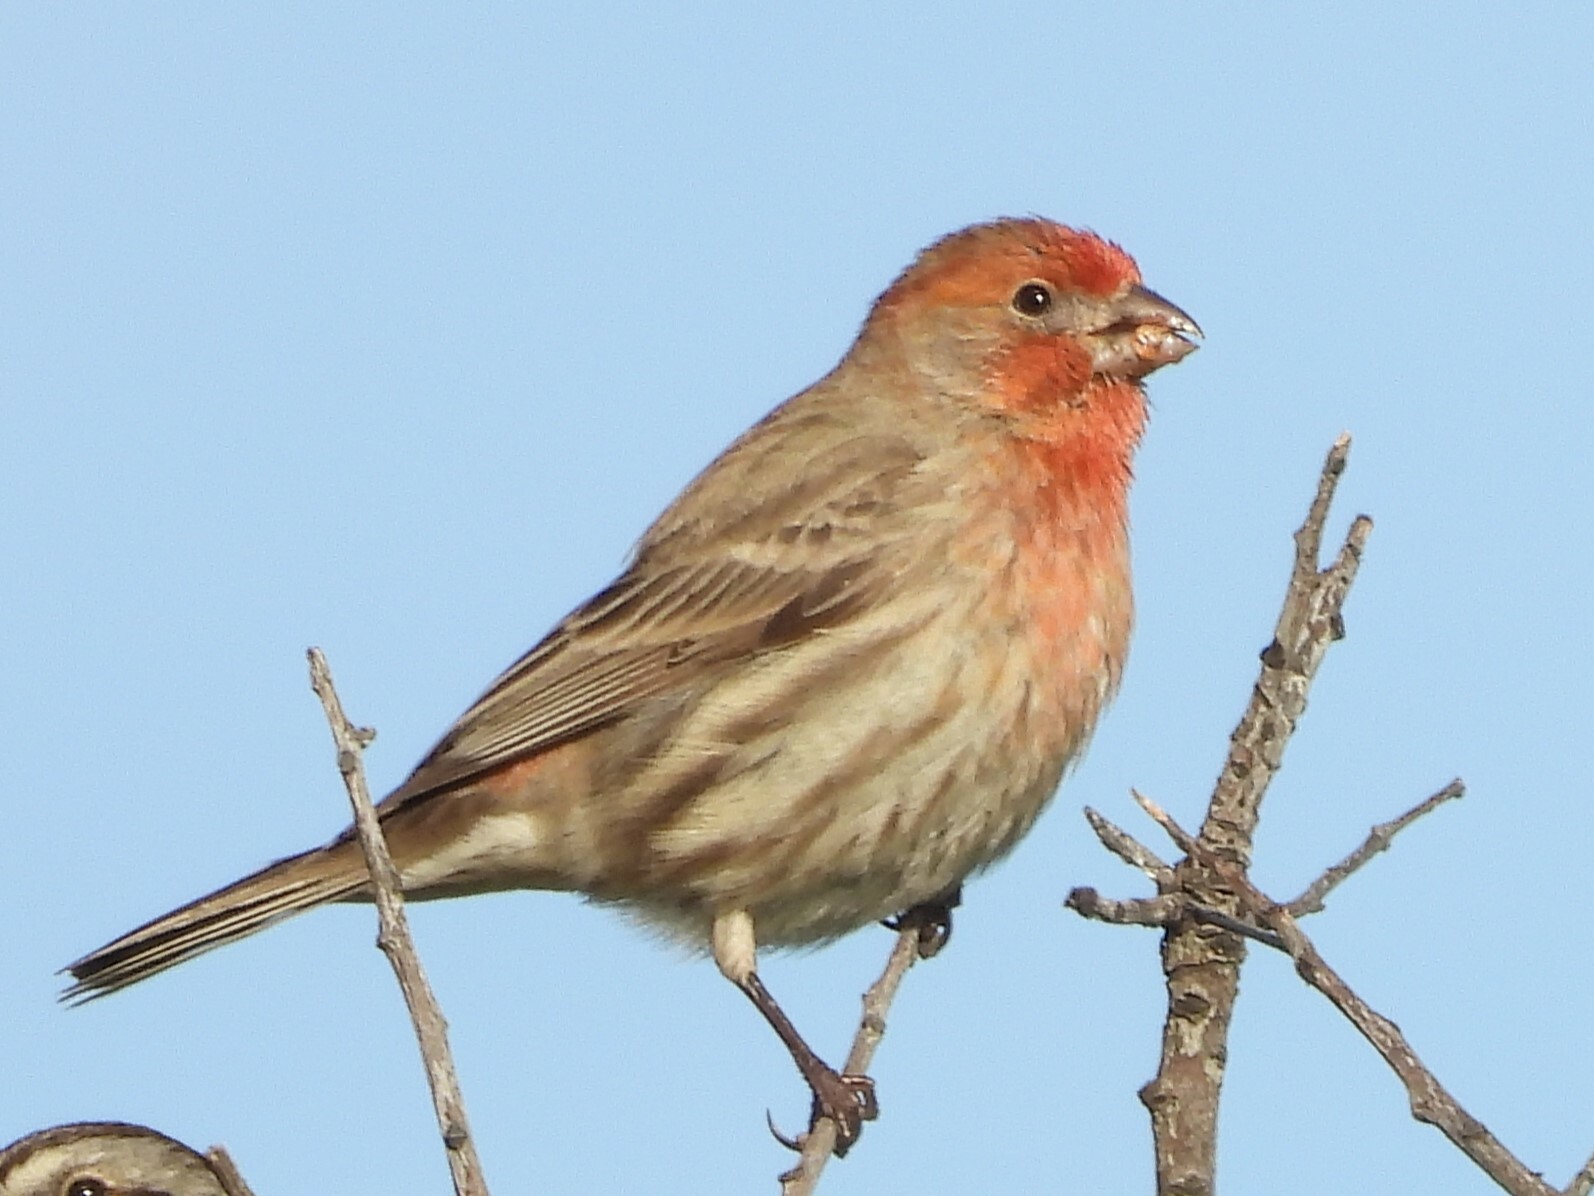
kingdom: Animalia
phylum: Chordata
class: Aves
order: Passeriformes
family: Fringillidae
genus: Haemorhous
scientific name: Haemorhous mexicanus
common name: House finch
